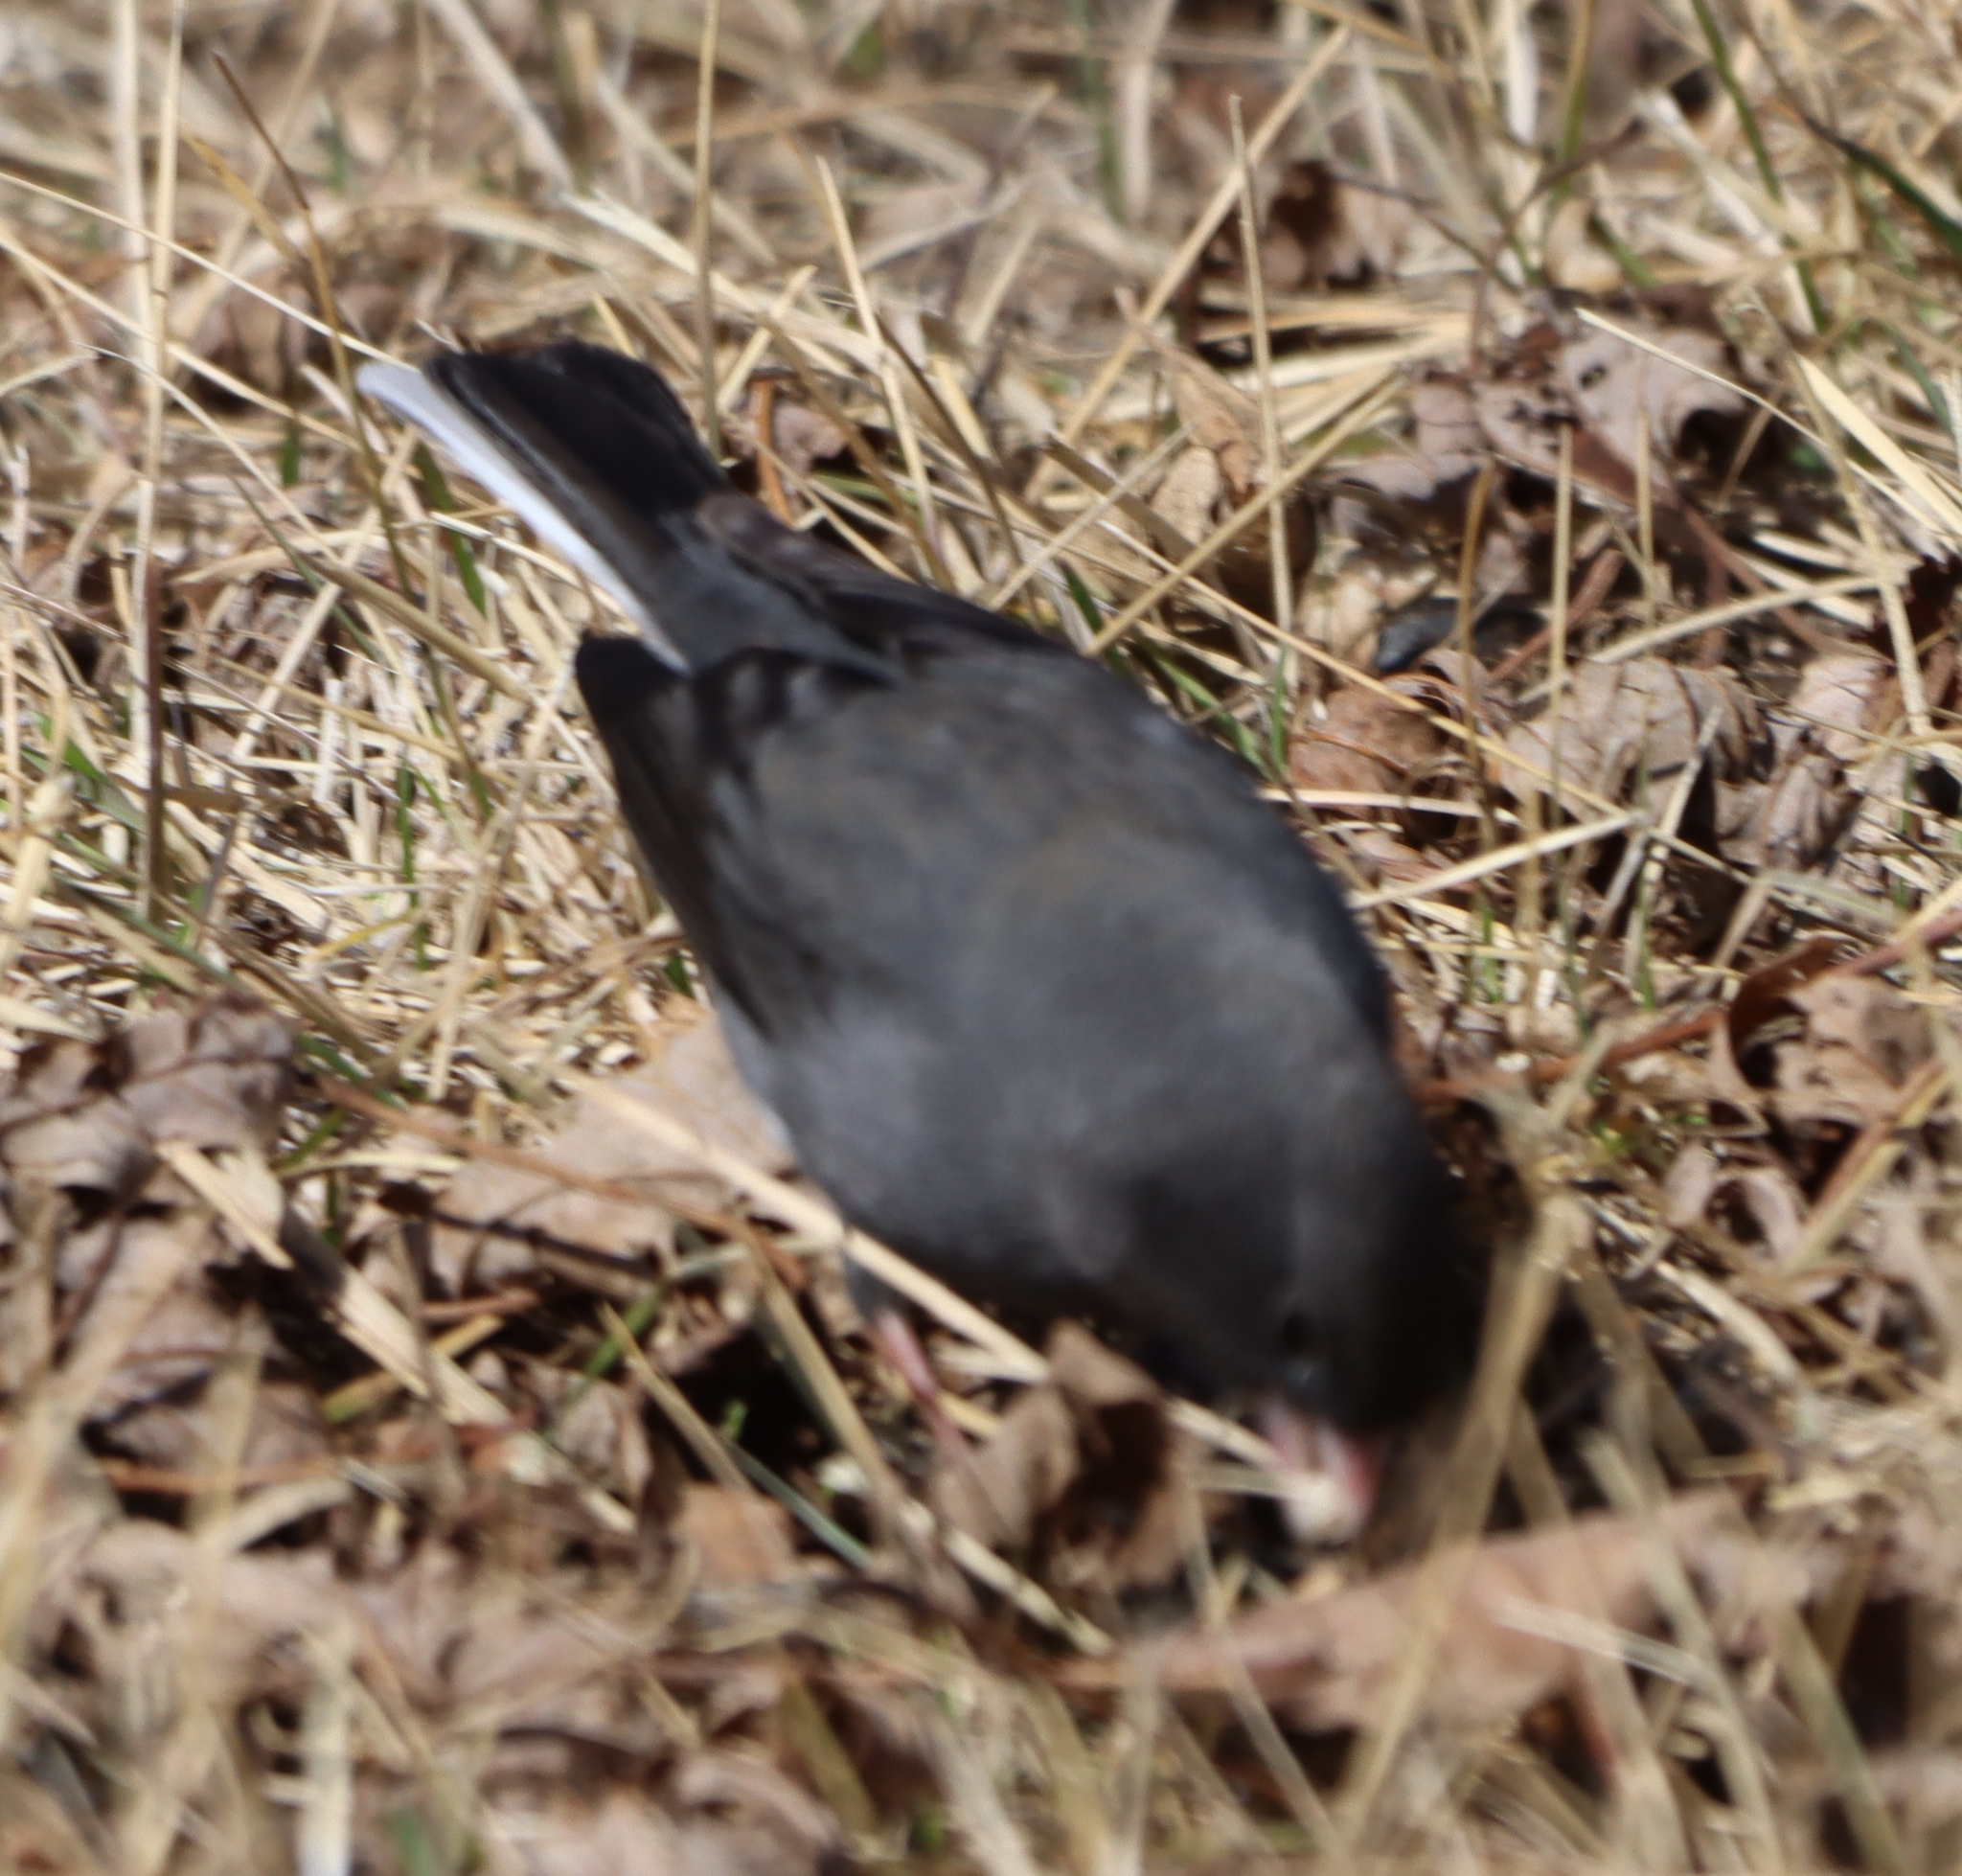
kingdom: Animalia
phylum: Chordata
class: Aves
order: Passeriformes
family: Passerellidae
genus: Junco
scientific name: Junco hyemalis
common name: Dark-eyed junco
